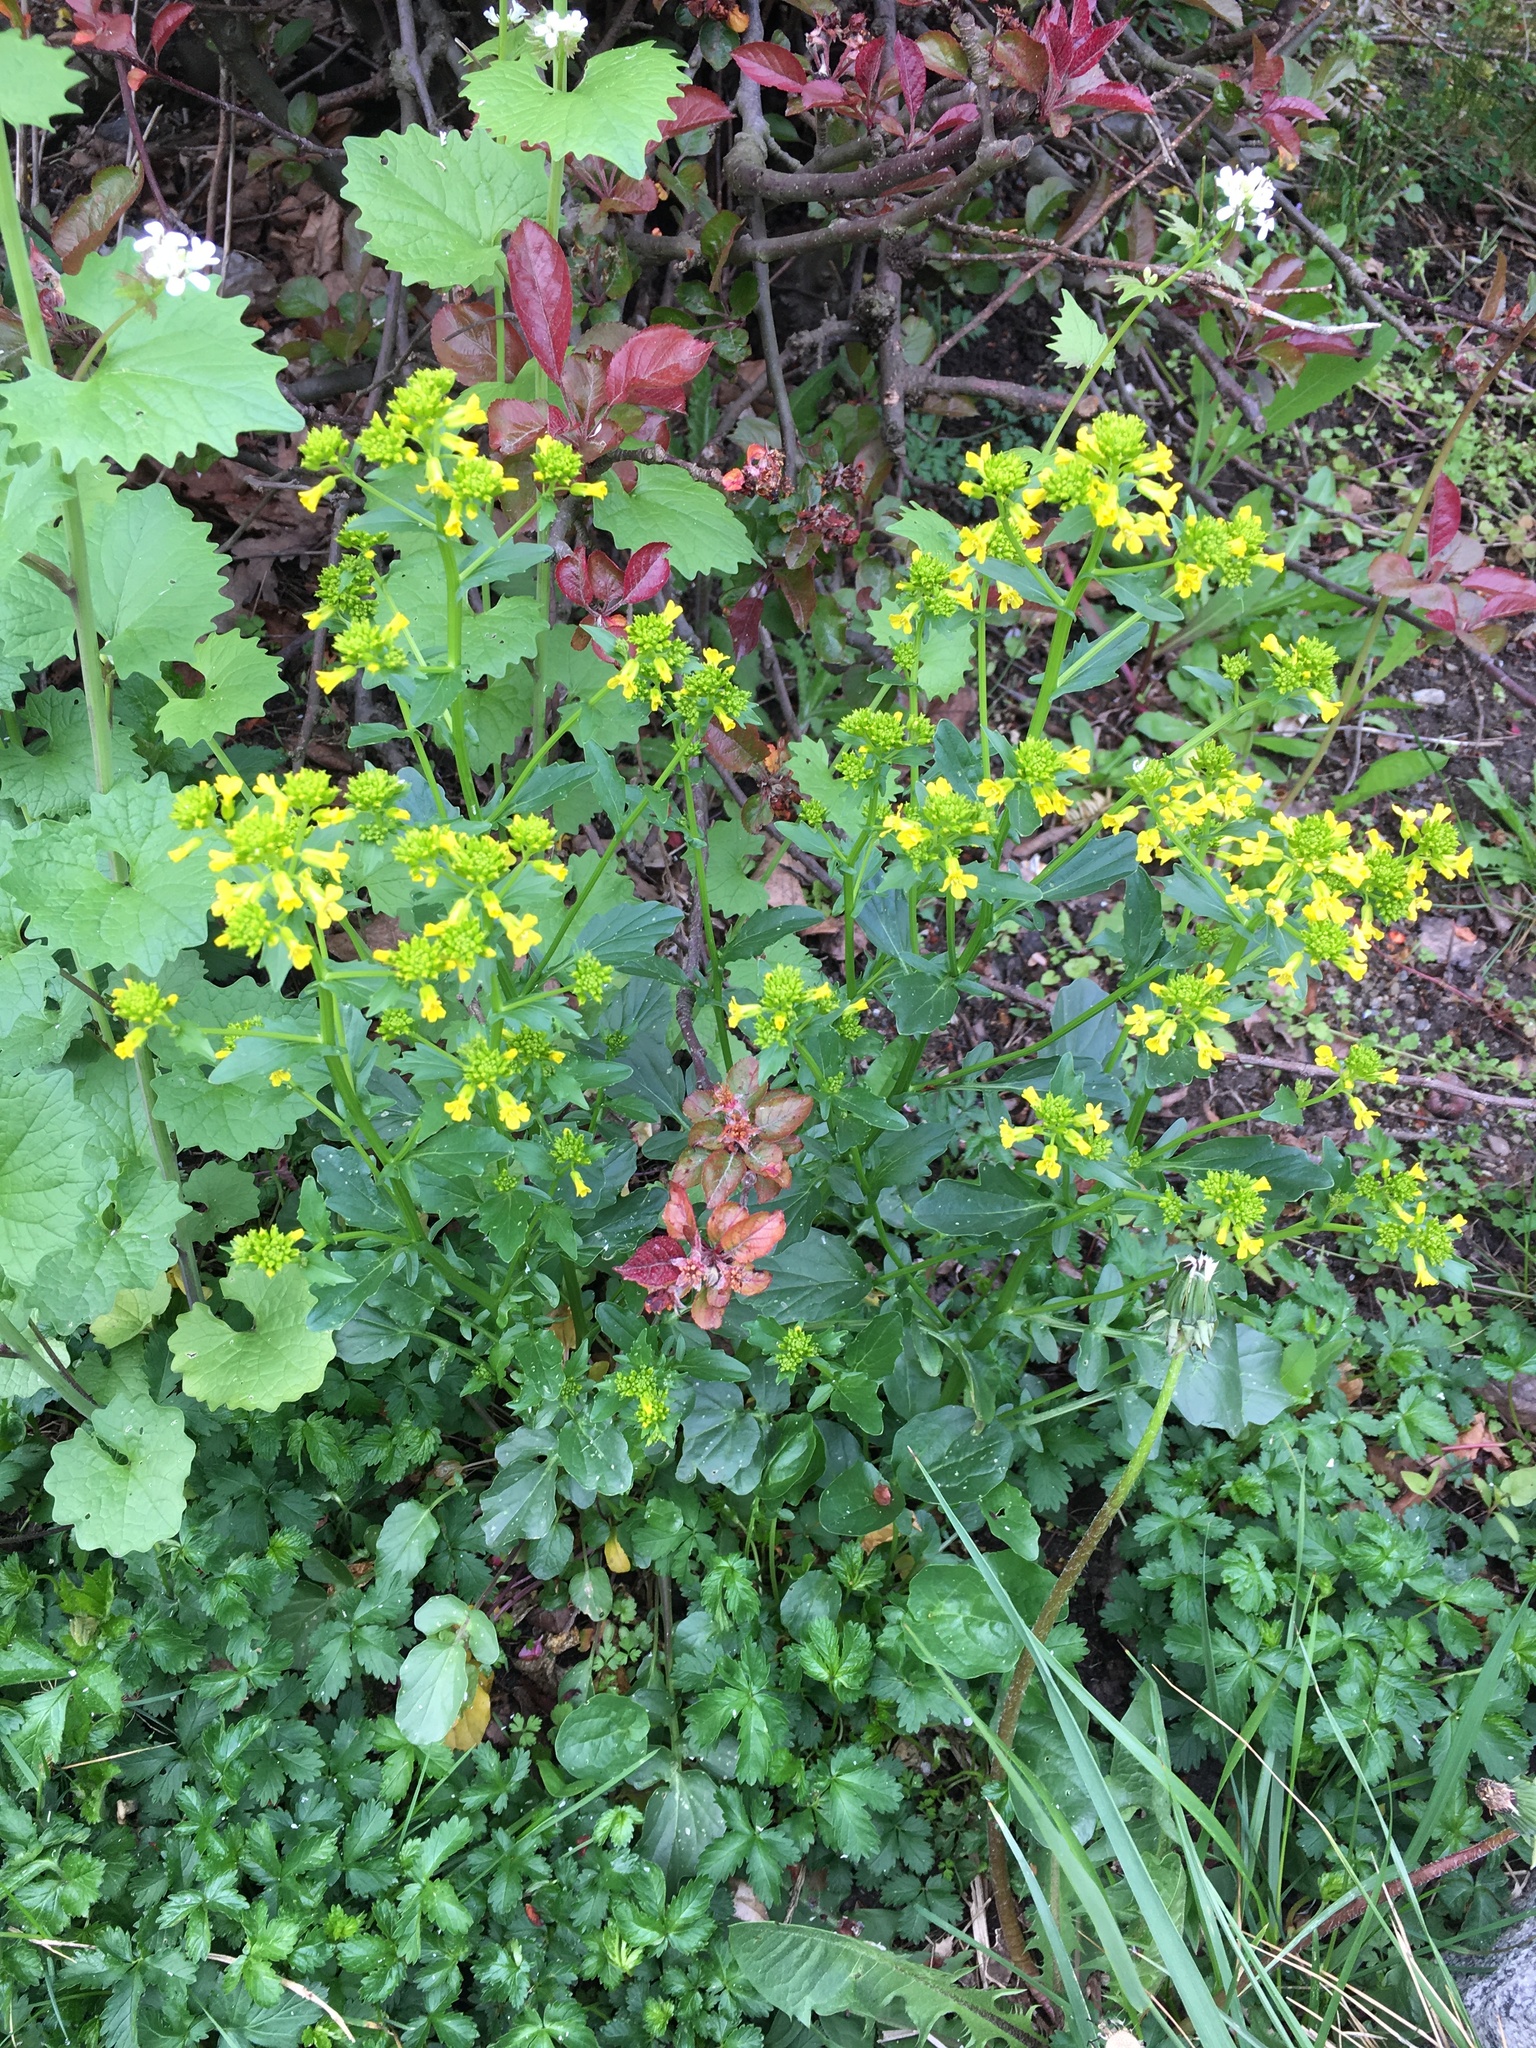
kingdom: Plantae
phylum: Tracheophyta
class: Magnoliopsida
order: Brassicales
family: Brassicaceae
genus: Barbarea
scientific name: Barbarea vulgaris
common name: Cressy-greens
